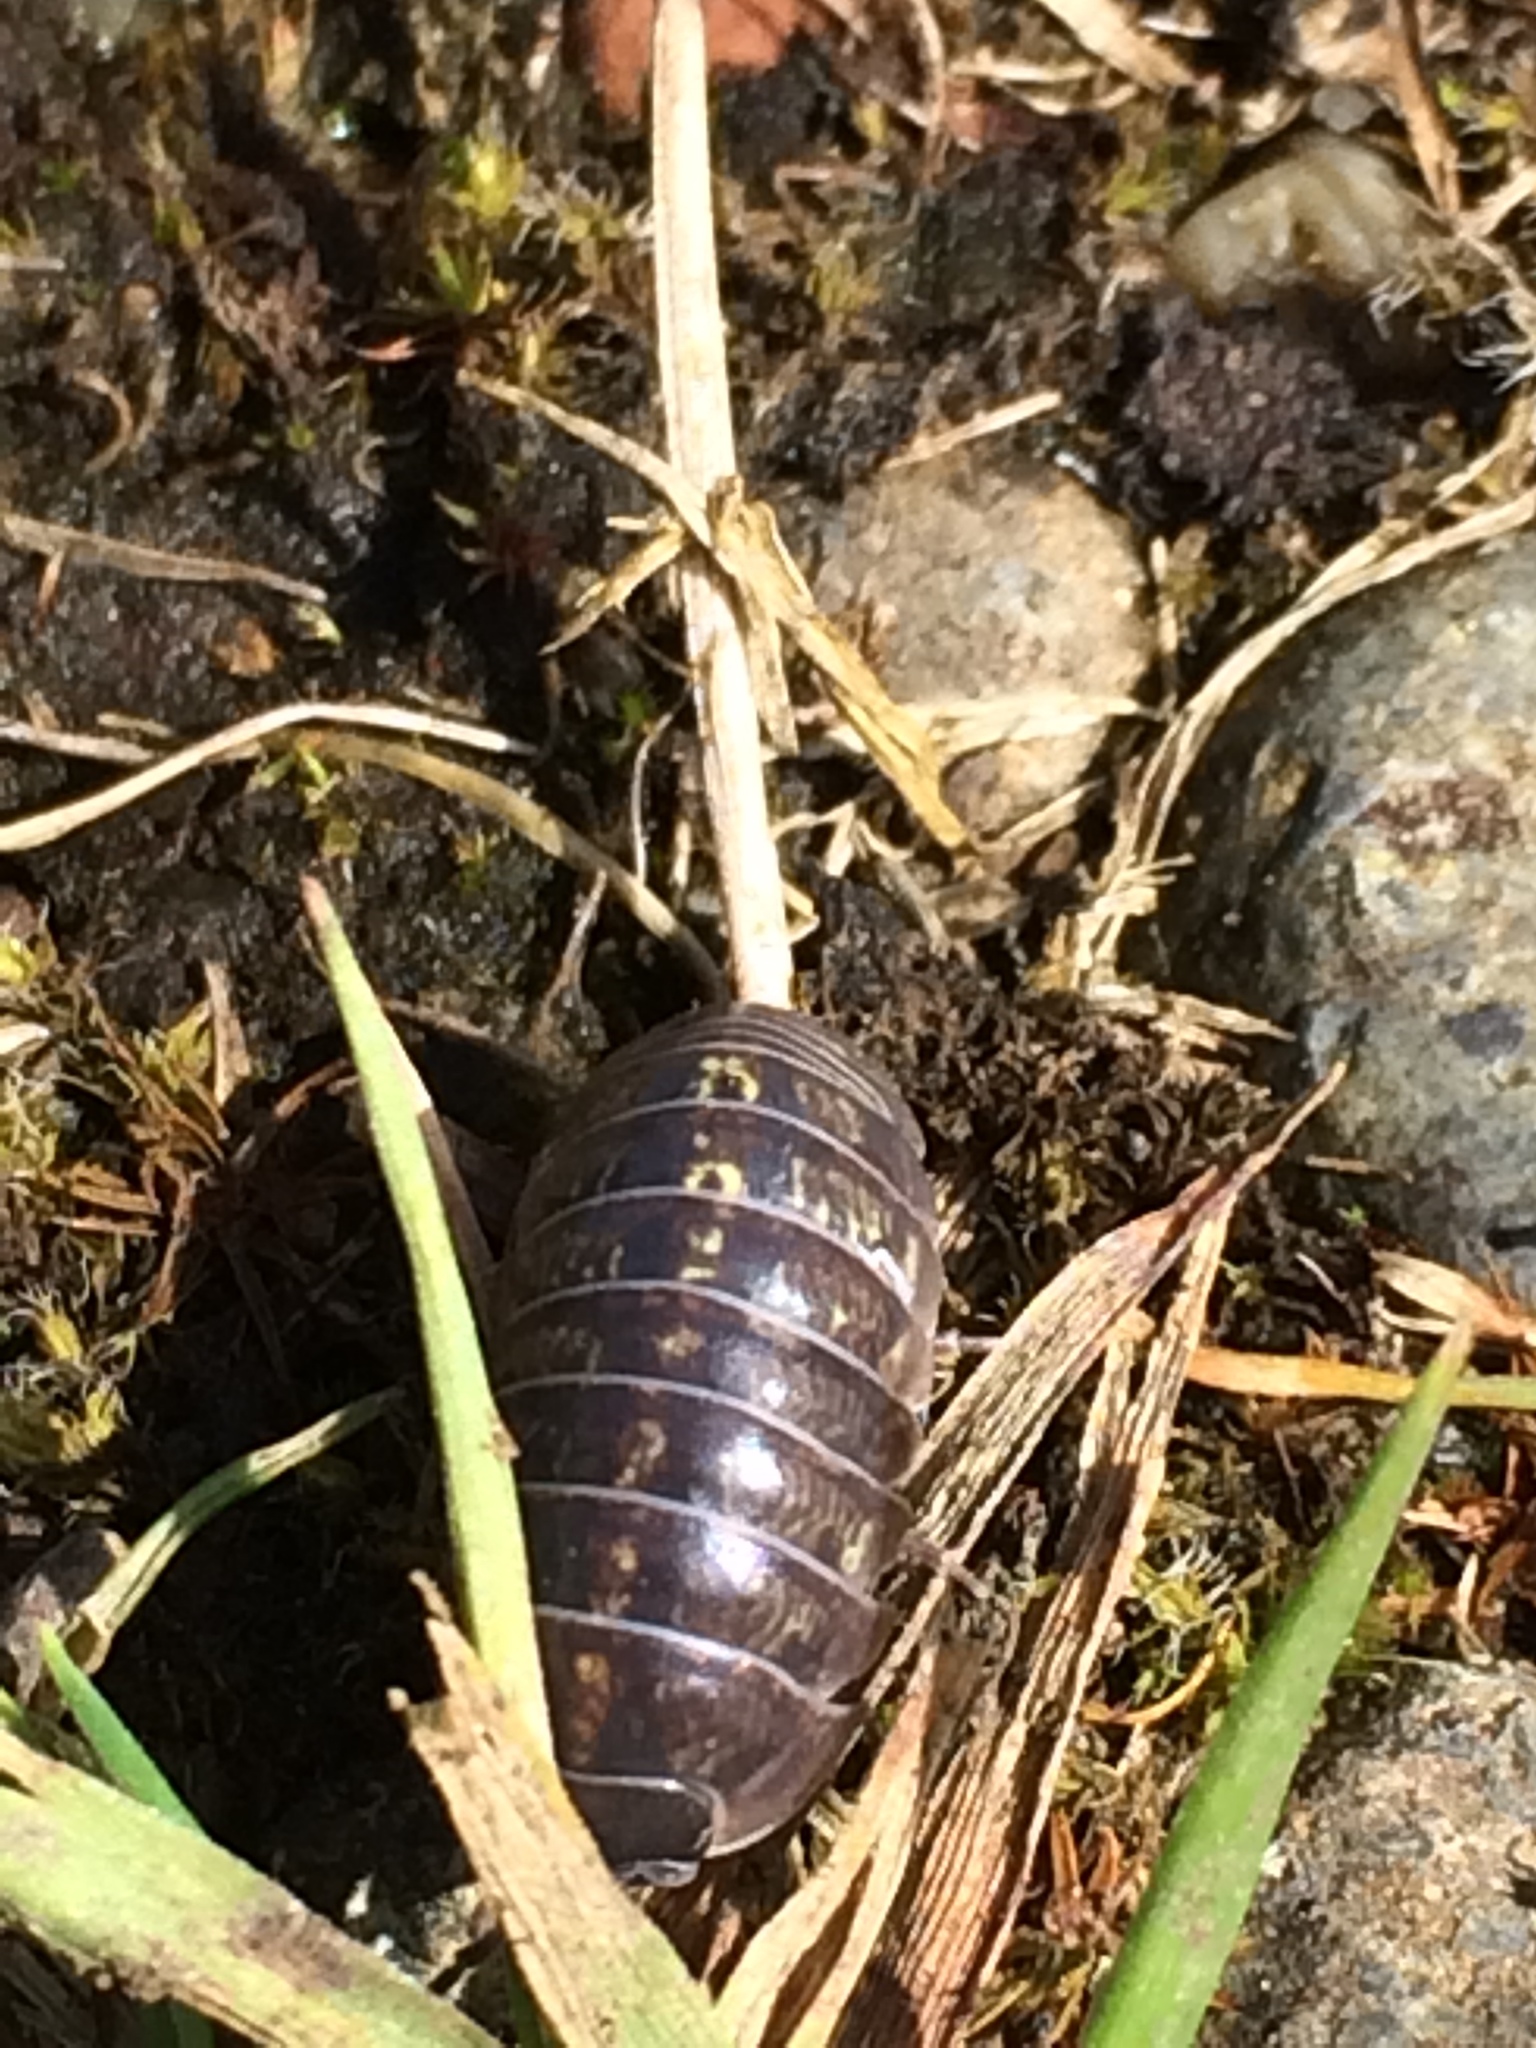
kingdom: Animalia
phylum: Arthropoda
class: Malacostraca
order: Isopoda
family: Armadillidiidae
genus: Armadillidium
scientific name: Armadillidium vulgare
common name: Common pill woodlouse
